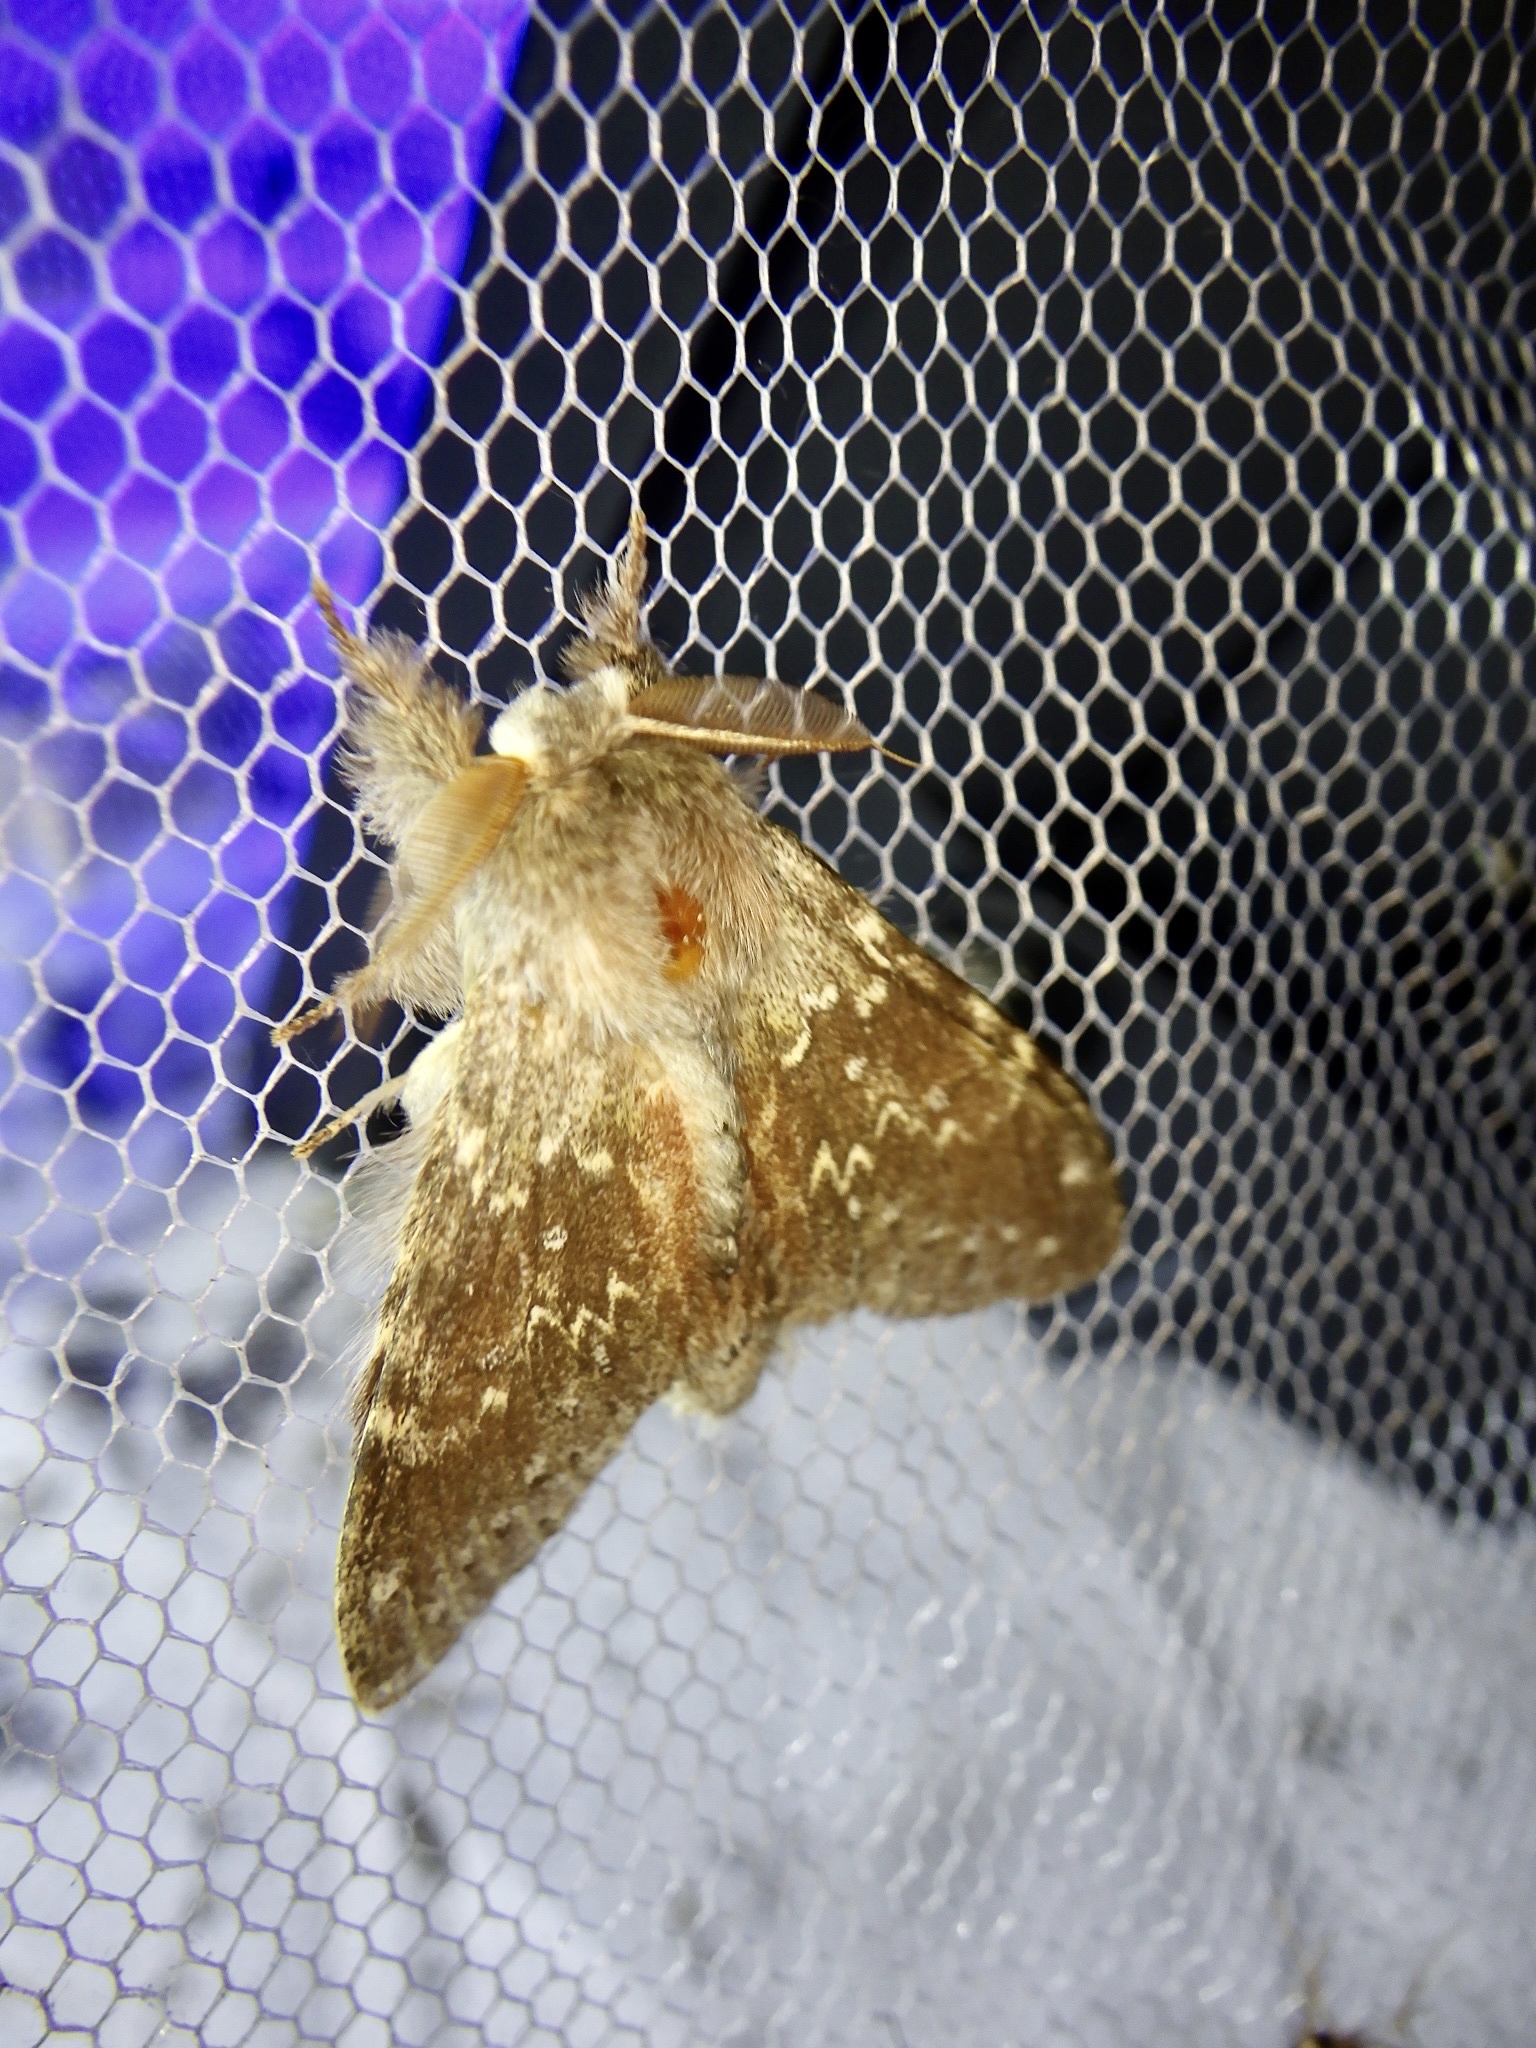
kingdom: Animalia
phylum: Arthropoda
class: Insecta
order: Lepidoptera
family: Notodontidae
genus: Stauropus
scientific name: Stauropus fagi
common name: Lobster moth
